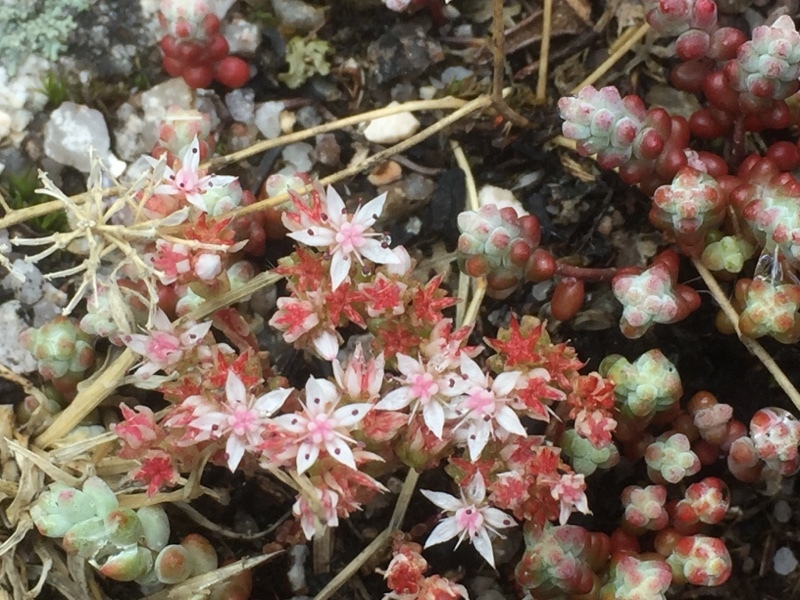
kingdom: Plantae
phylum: Tracheophyta
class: Magnoliopsida
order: Saxifragales
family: Crassulaceae
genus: Sedum
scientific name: Sedum brevifolium
